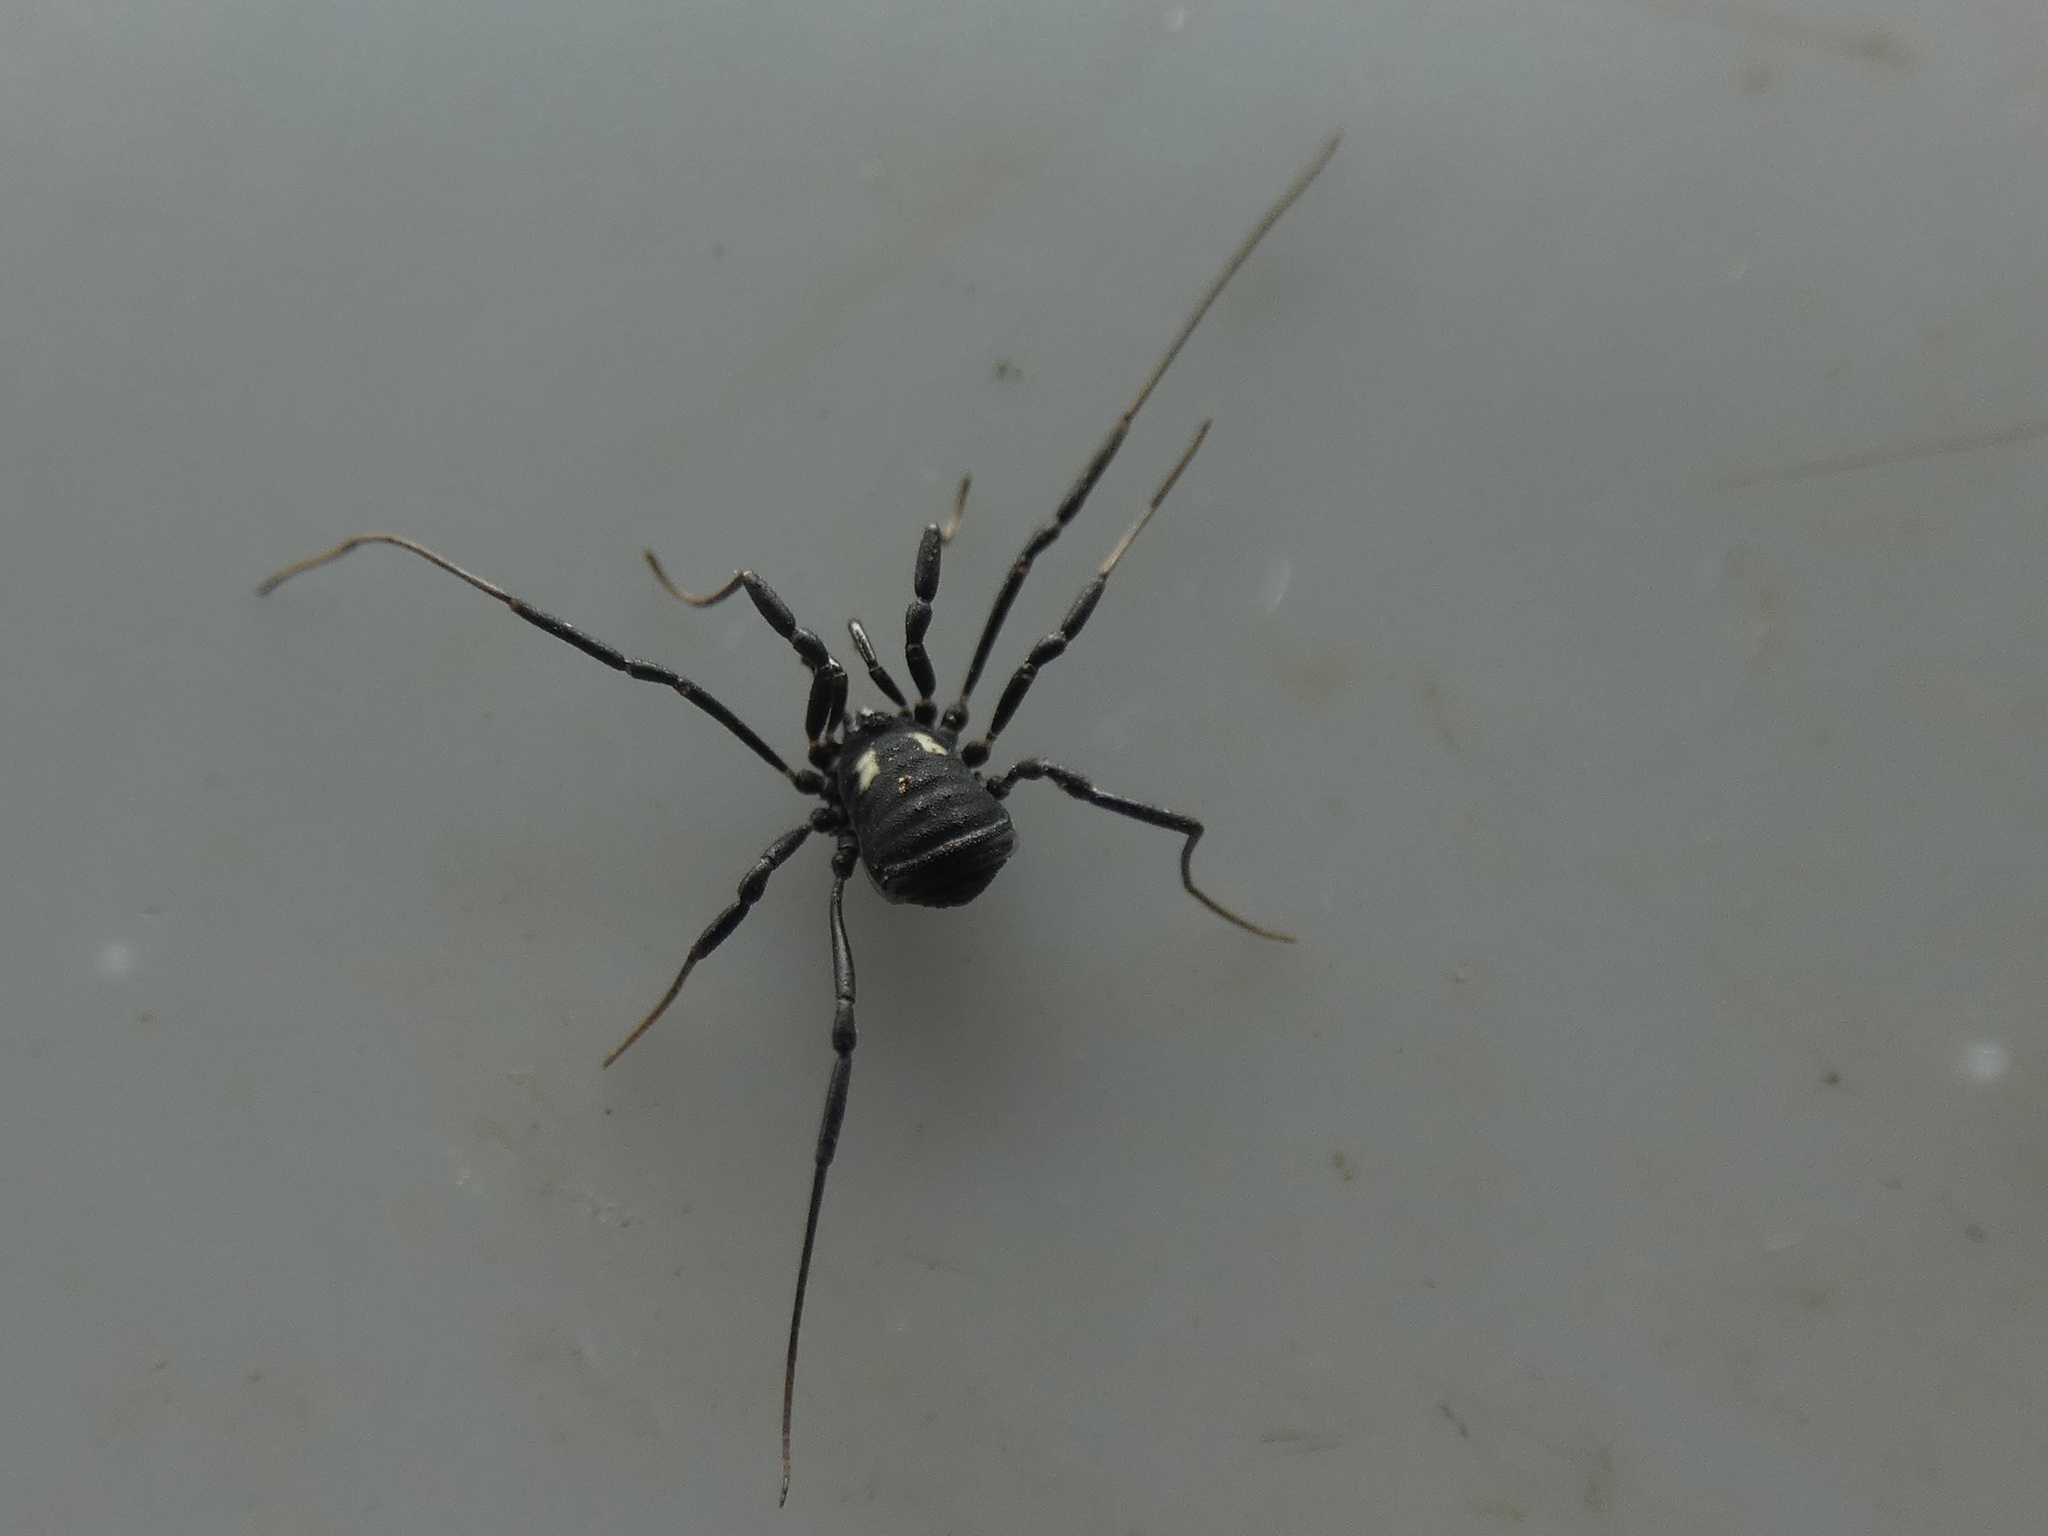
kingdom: Animalia
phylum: Arthropoda
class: Arachnida
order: Opiliones
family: Nemastomatidae
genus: Nemastoma
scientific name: Nemastoma bimaculatum
